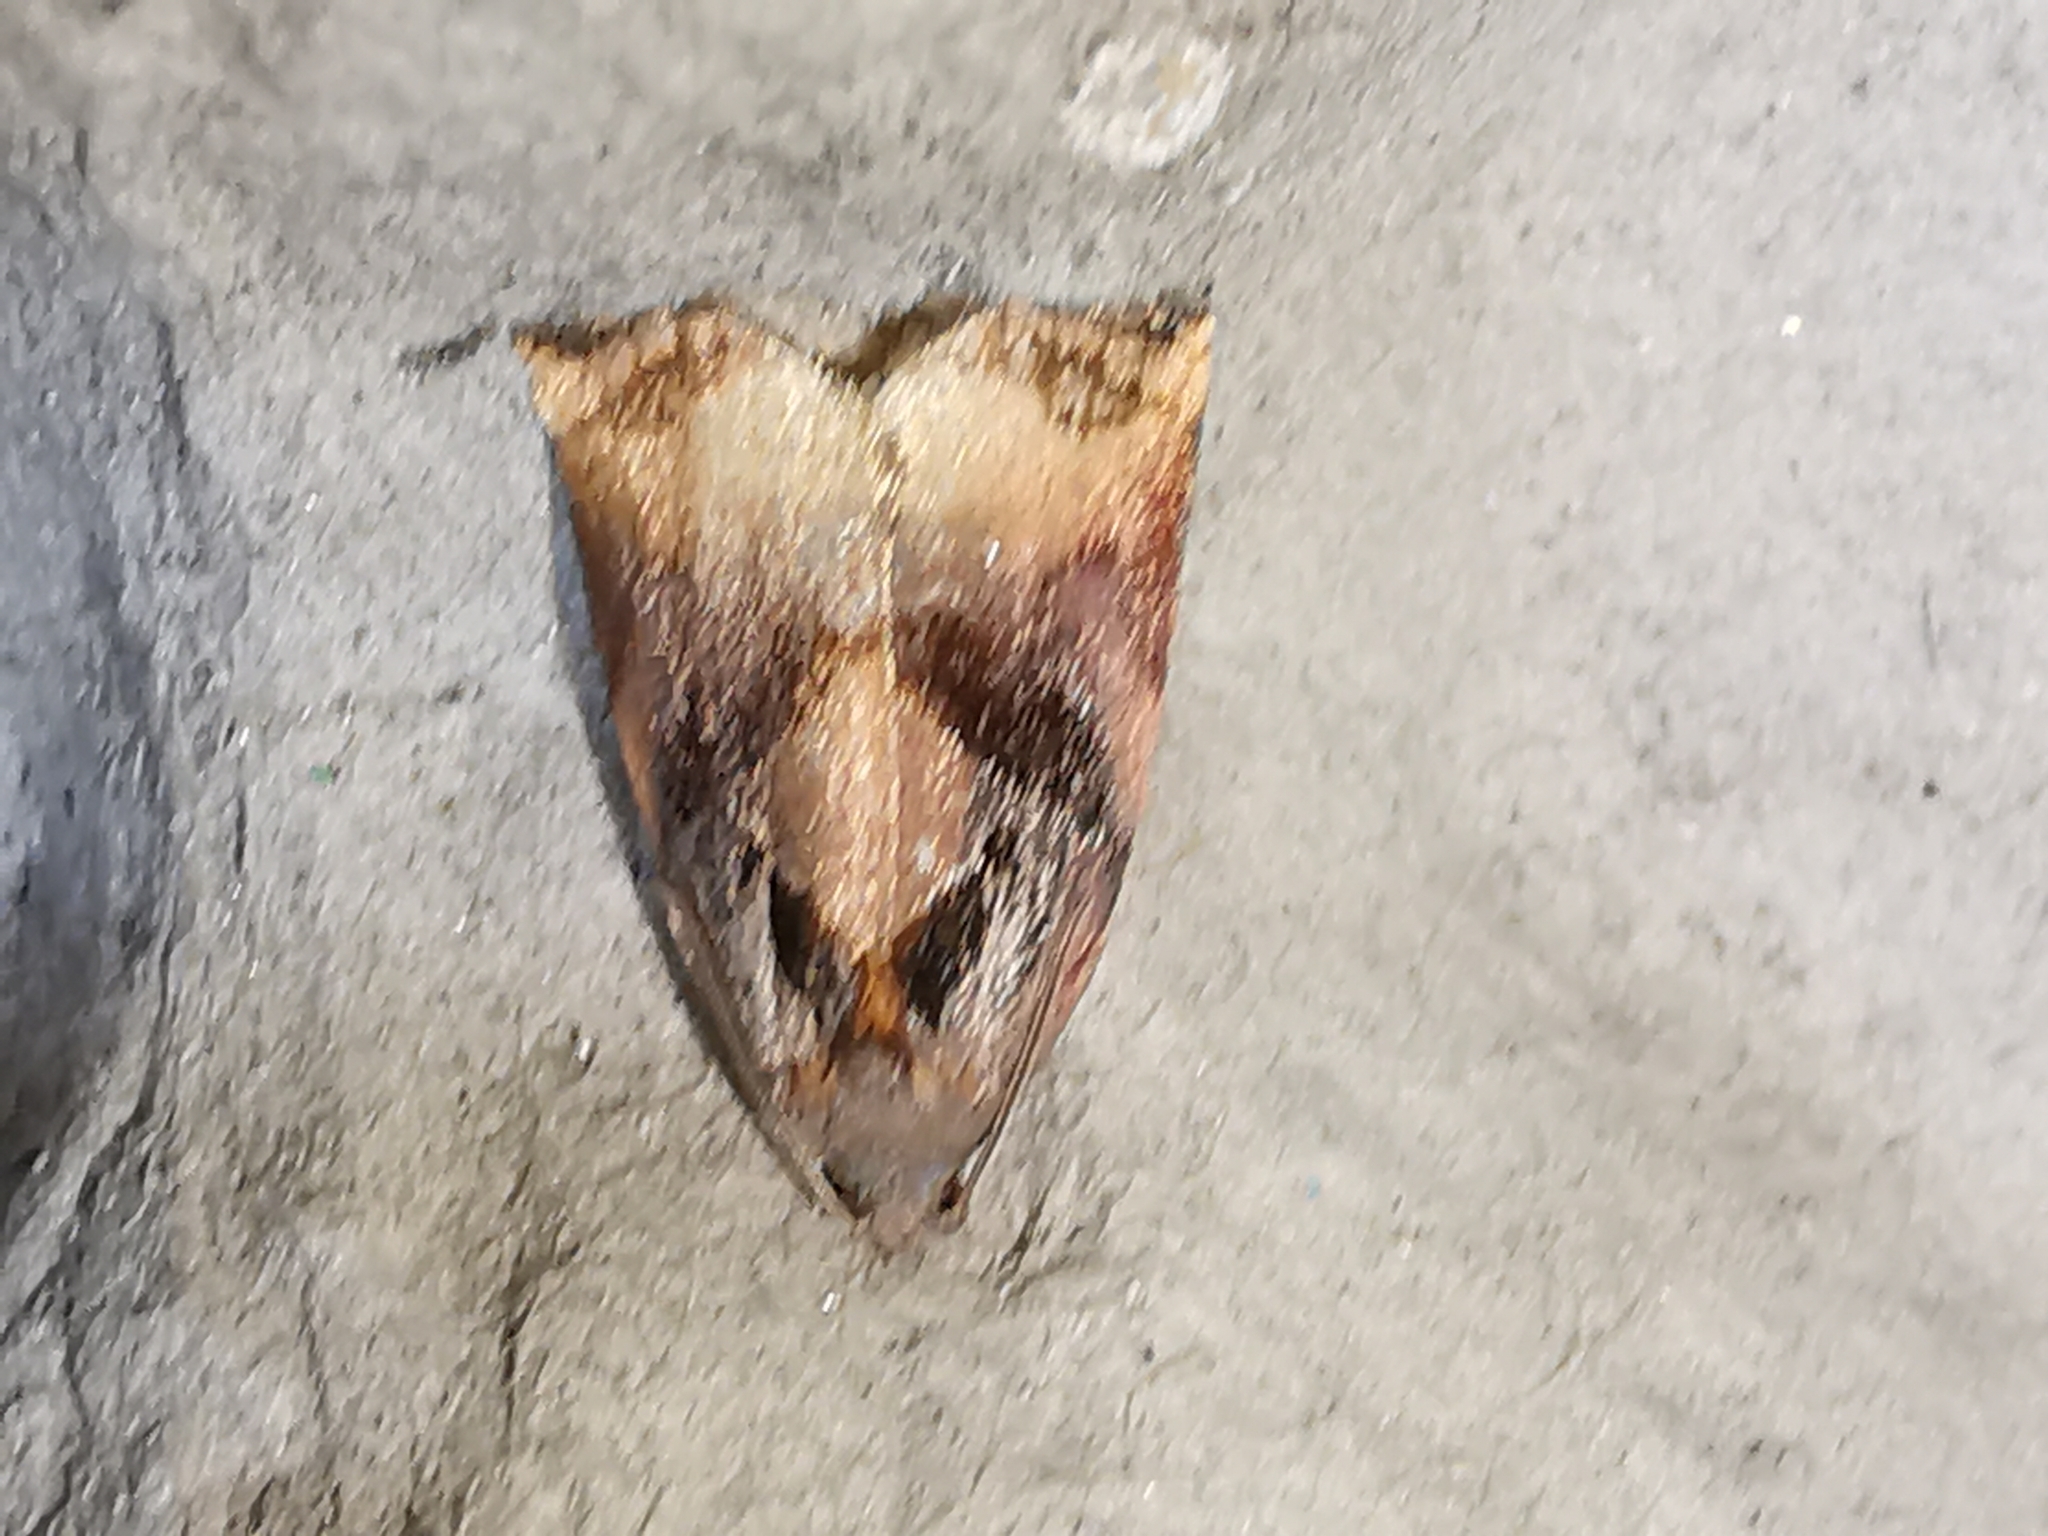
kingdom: Animalia
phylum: Arthropoda
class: Insecta
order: Lepidoptera
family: Tortricidae
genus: Archips
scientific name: Archips podana
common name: Large fruit-tree tortrix
